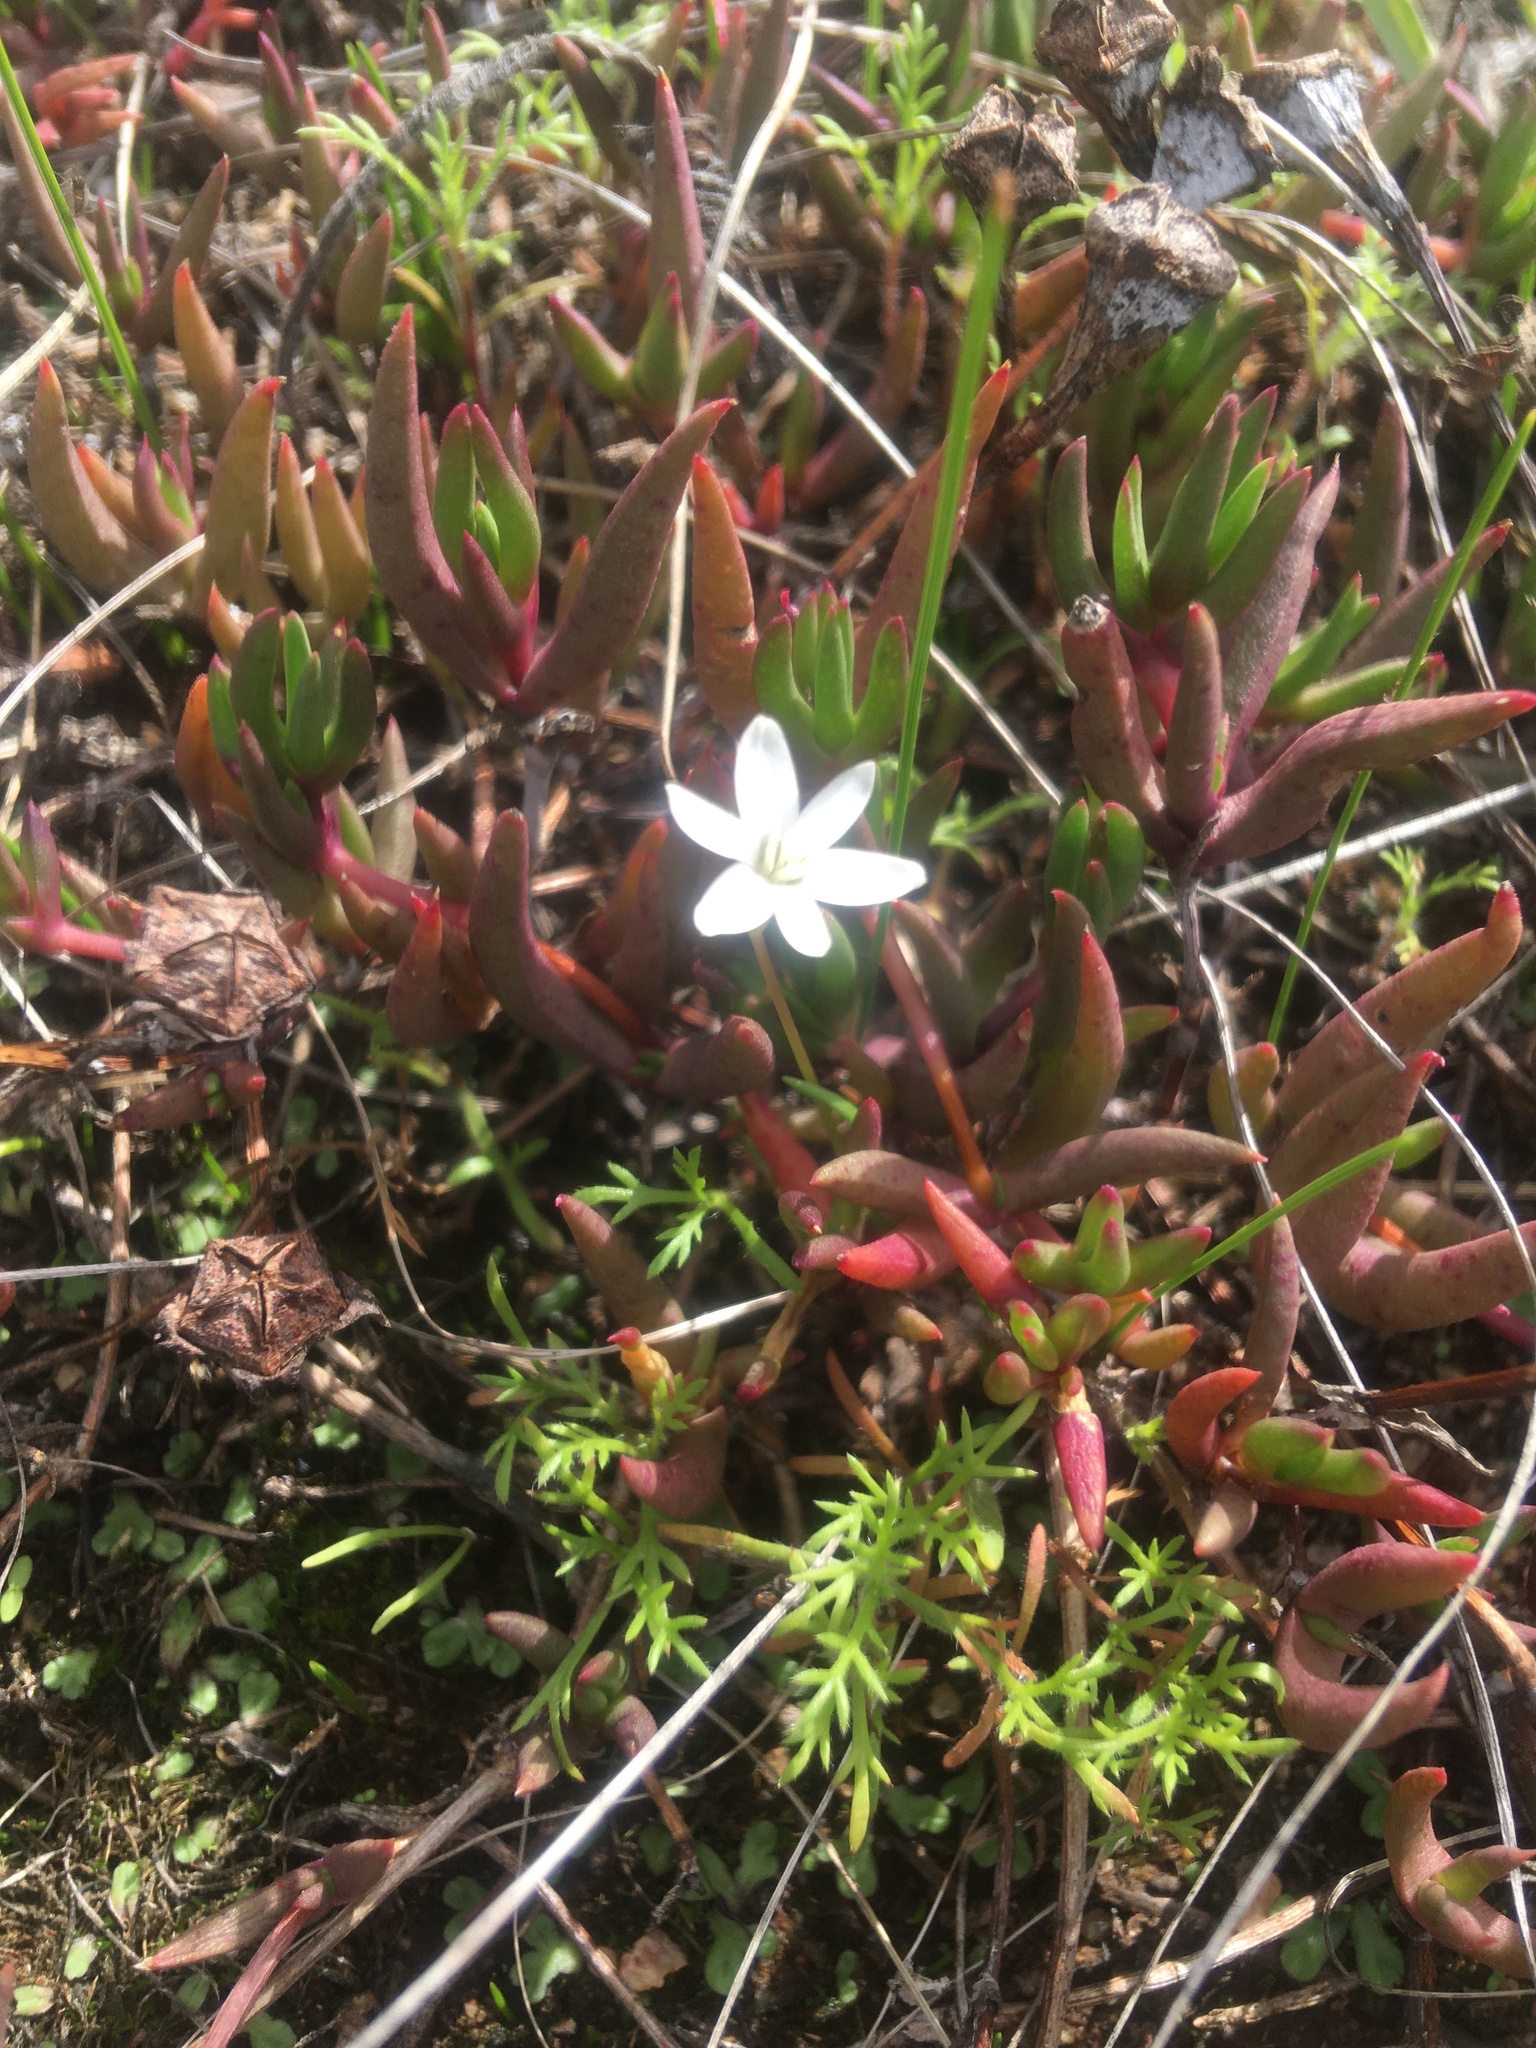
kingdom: Plantae
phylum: Tracheophyta
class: Liliopsida
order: Asparagales
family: Hypoxidaceae
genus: Pauridia
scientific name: Pauridia minuta
